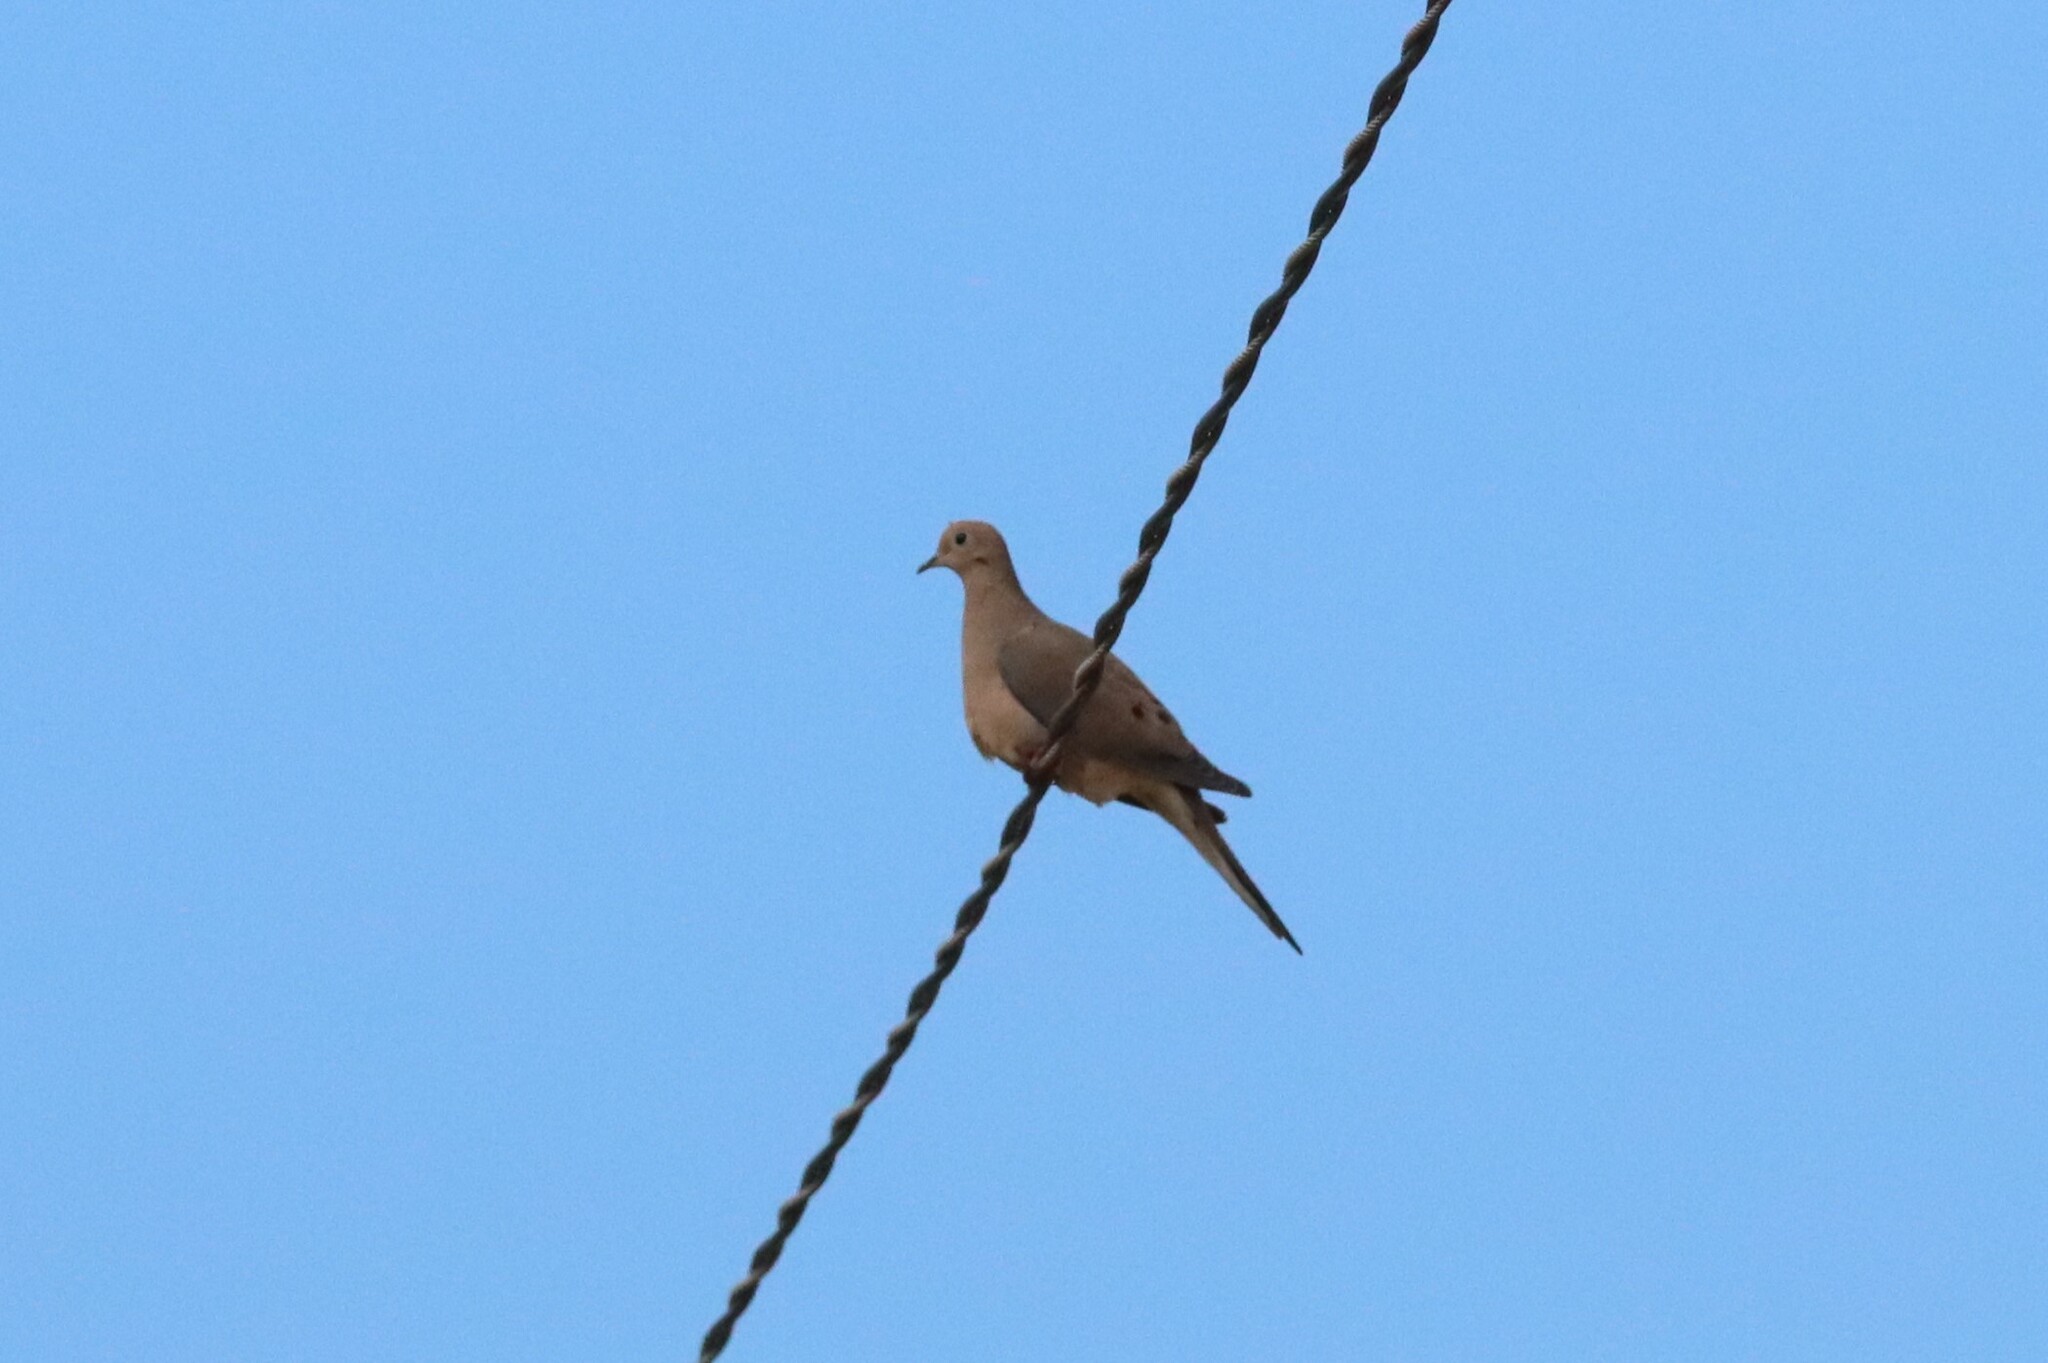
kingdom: Animalia
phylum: Chordata
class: Aves
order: Columbiformes
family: Columbidae
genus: Zenaida
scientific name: Zenaida macroura
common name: Mourning dove
